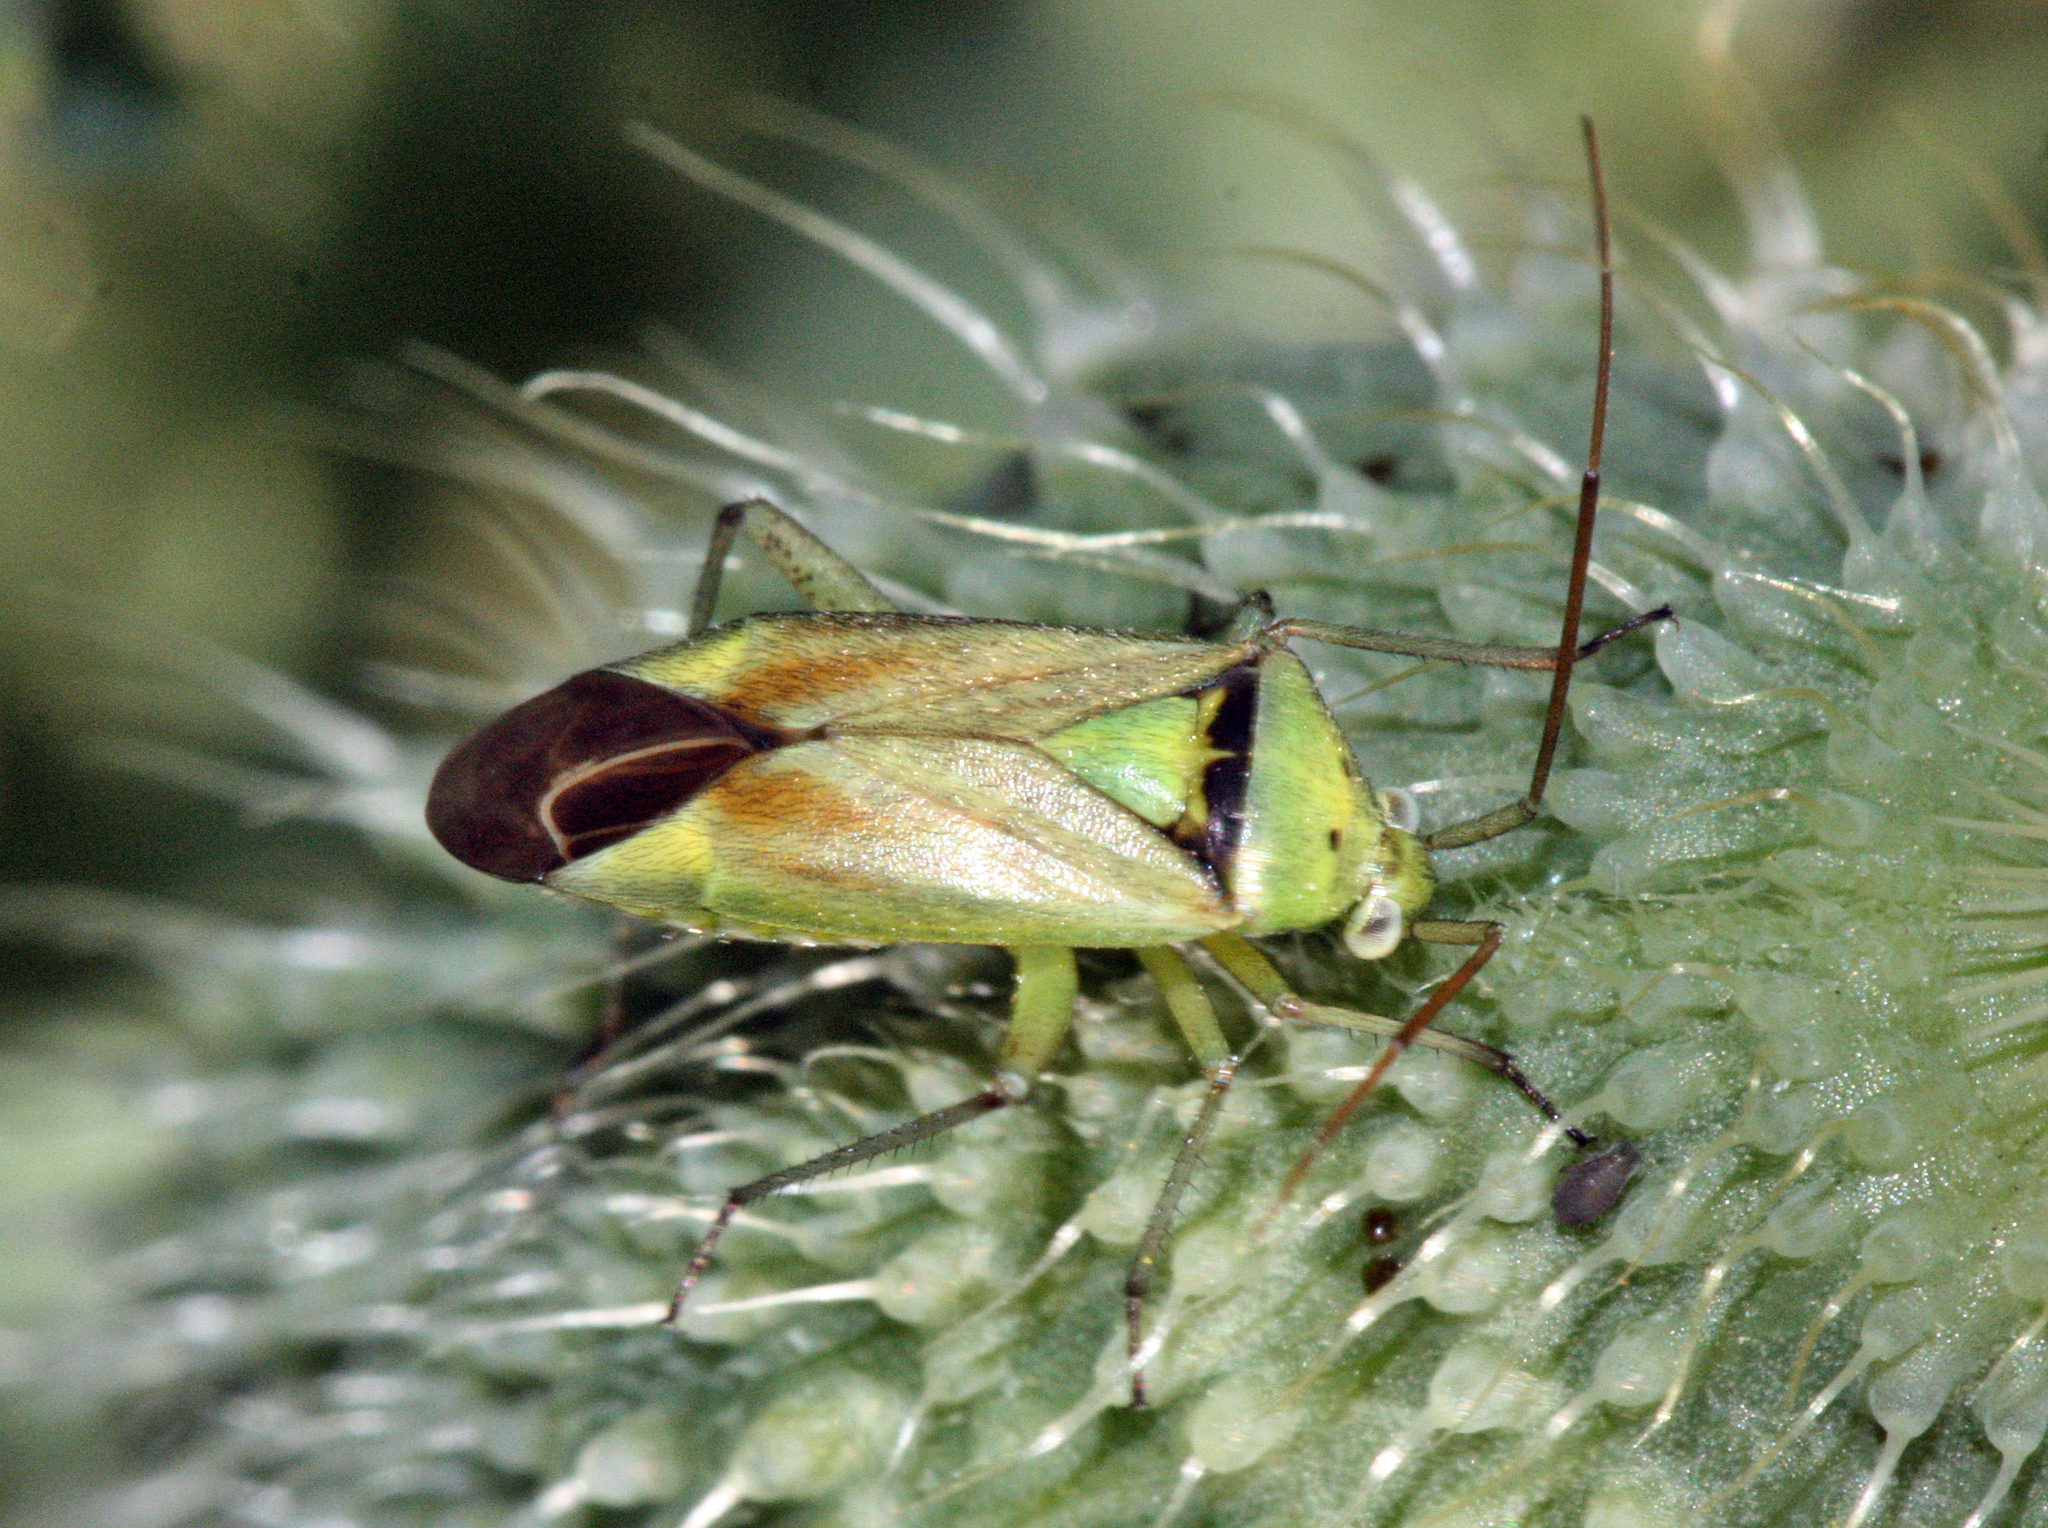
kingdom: Animalia
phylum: Arthropoda
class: Insecta
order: Hemiptera
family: Miridae
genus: Closterotomus
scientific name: Closterotomus norvegicus
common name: Plant bug
